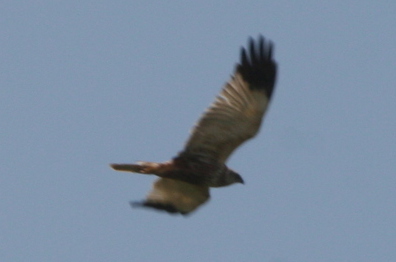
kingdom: Animalia
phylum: Chordata
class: Aves
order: Accipitriformes
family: Accipitridae
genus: Circus
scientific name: Circus aeruginosus
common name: Western marsh harrier
